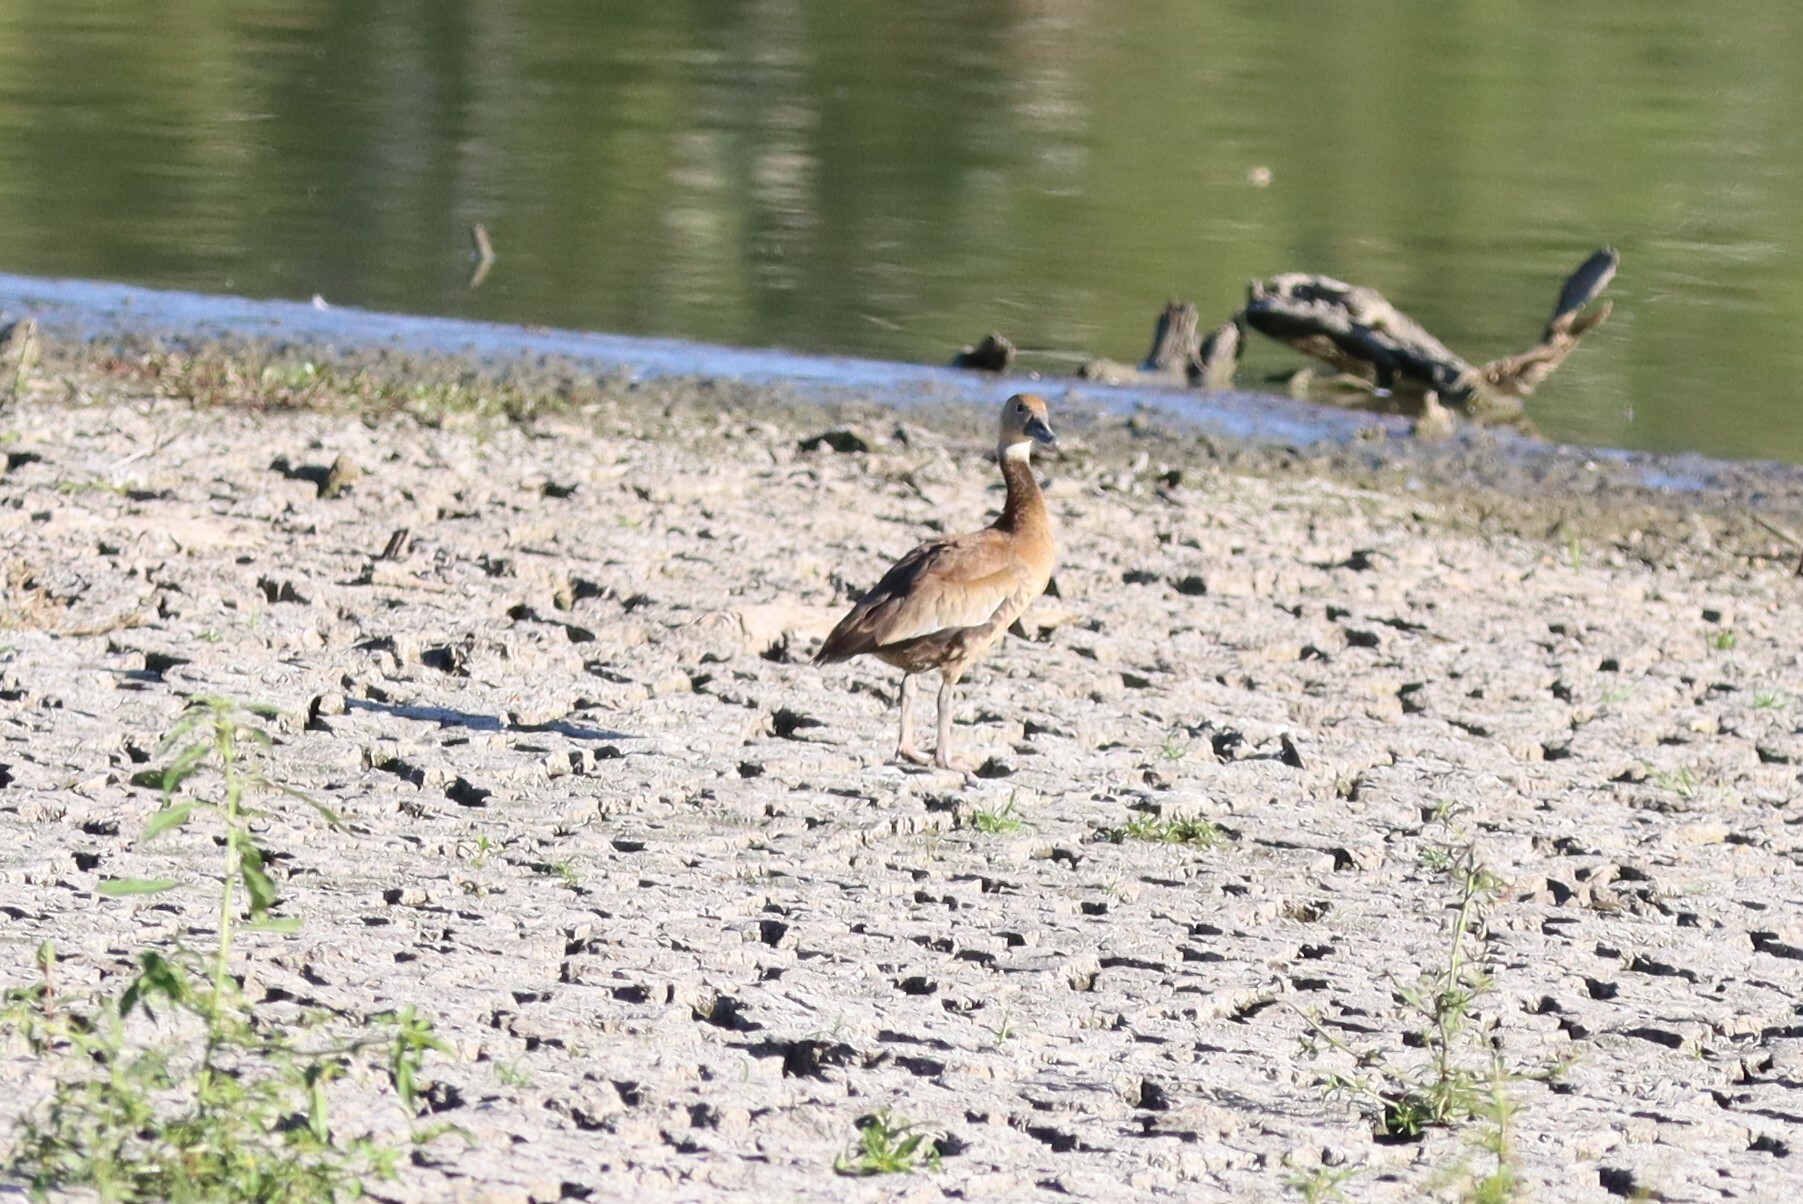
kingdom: Animalia
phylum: Chordata
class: Aves
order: Anseriformes
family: Anatidae
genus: Dendrocygna
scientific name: Dendrocygna autumnalis
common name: Black-bellied whistling duck
